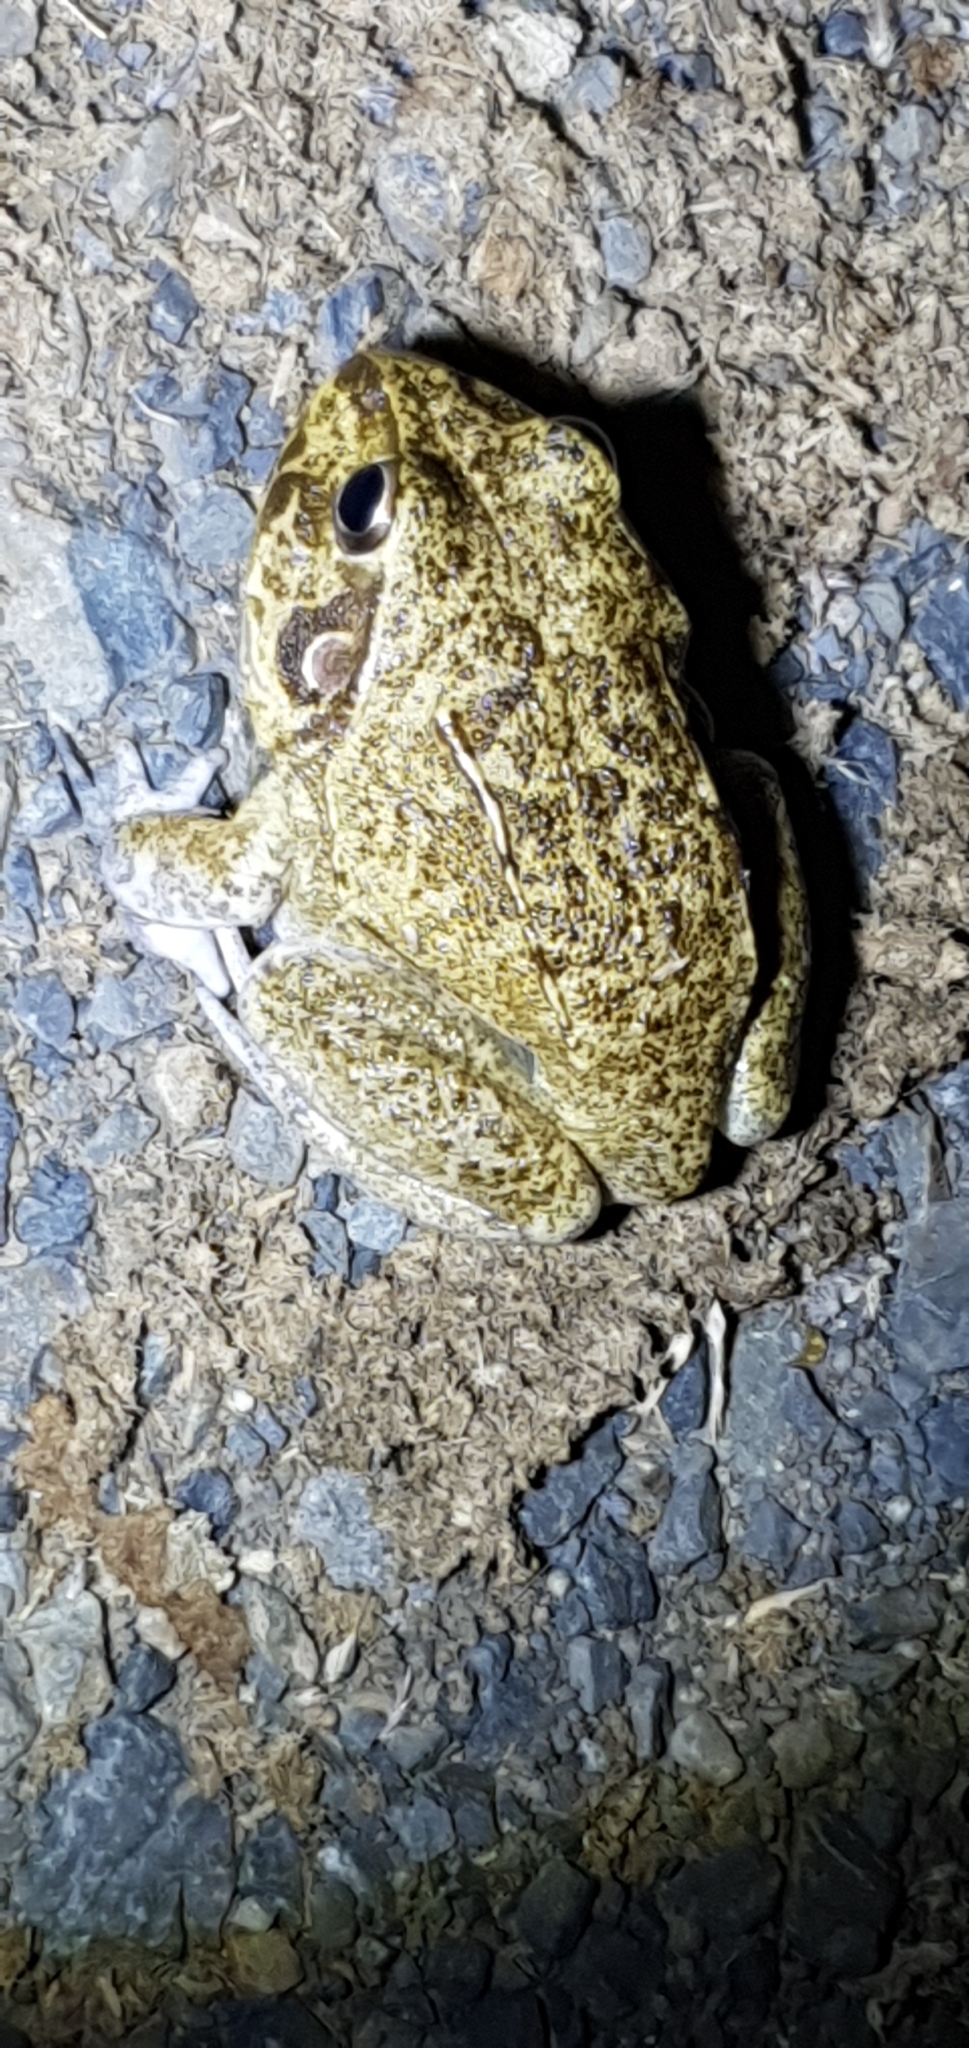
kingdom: Animalia
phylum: Chordata
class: Amphibia
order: Anura
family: Pelodryadidae
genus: Ranoidea
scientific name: Ranoidea novaehollandiae
